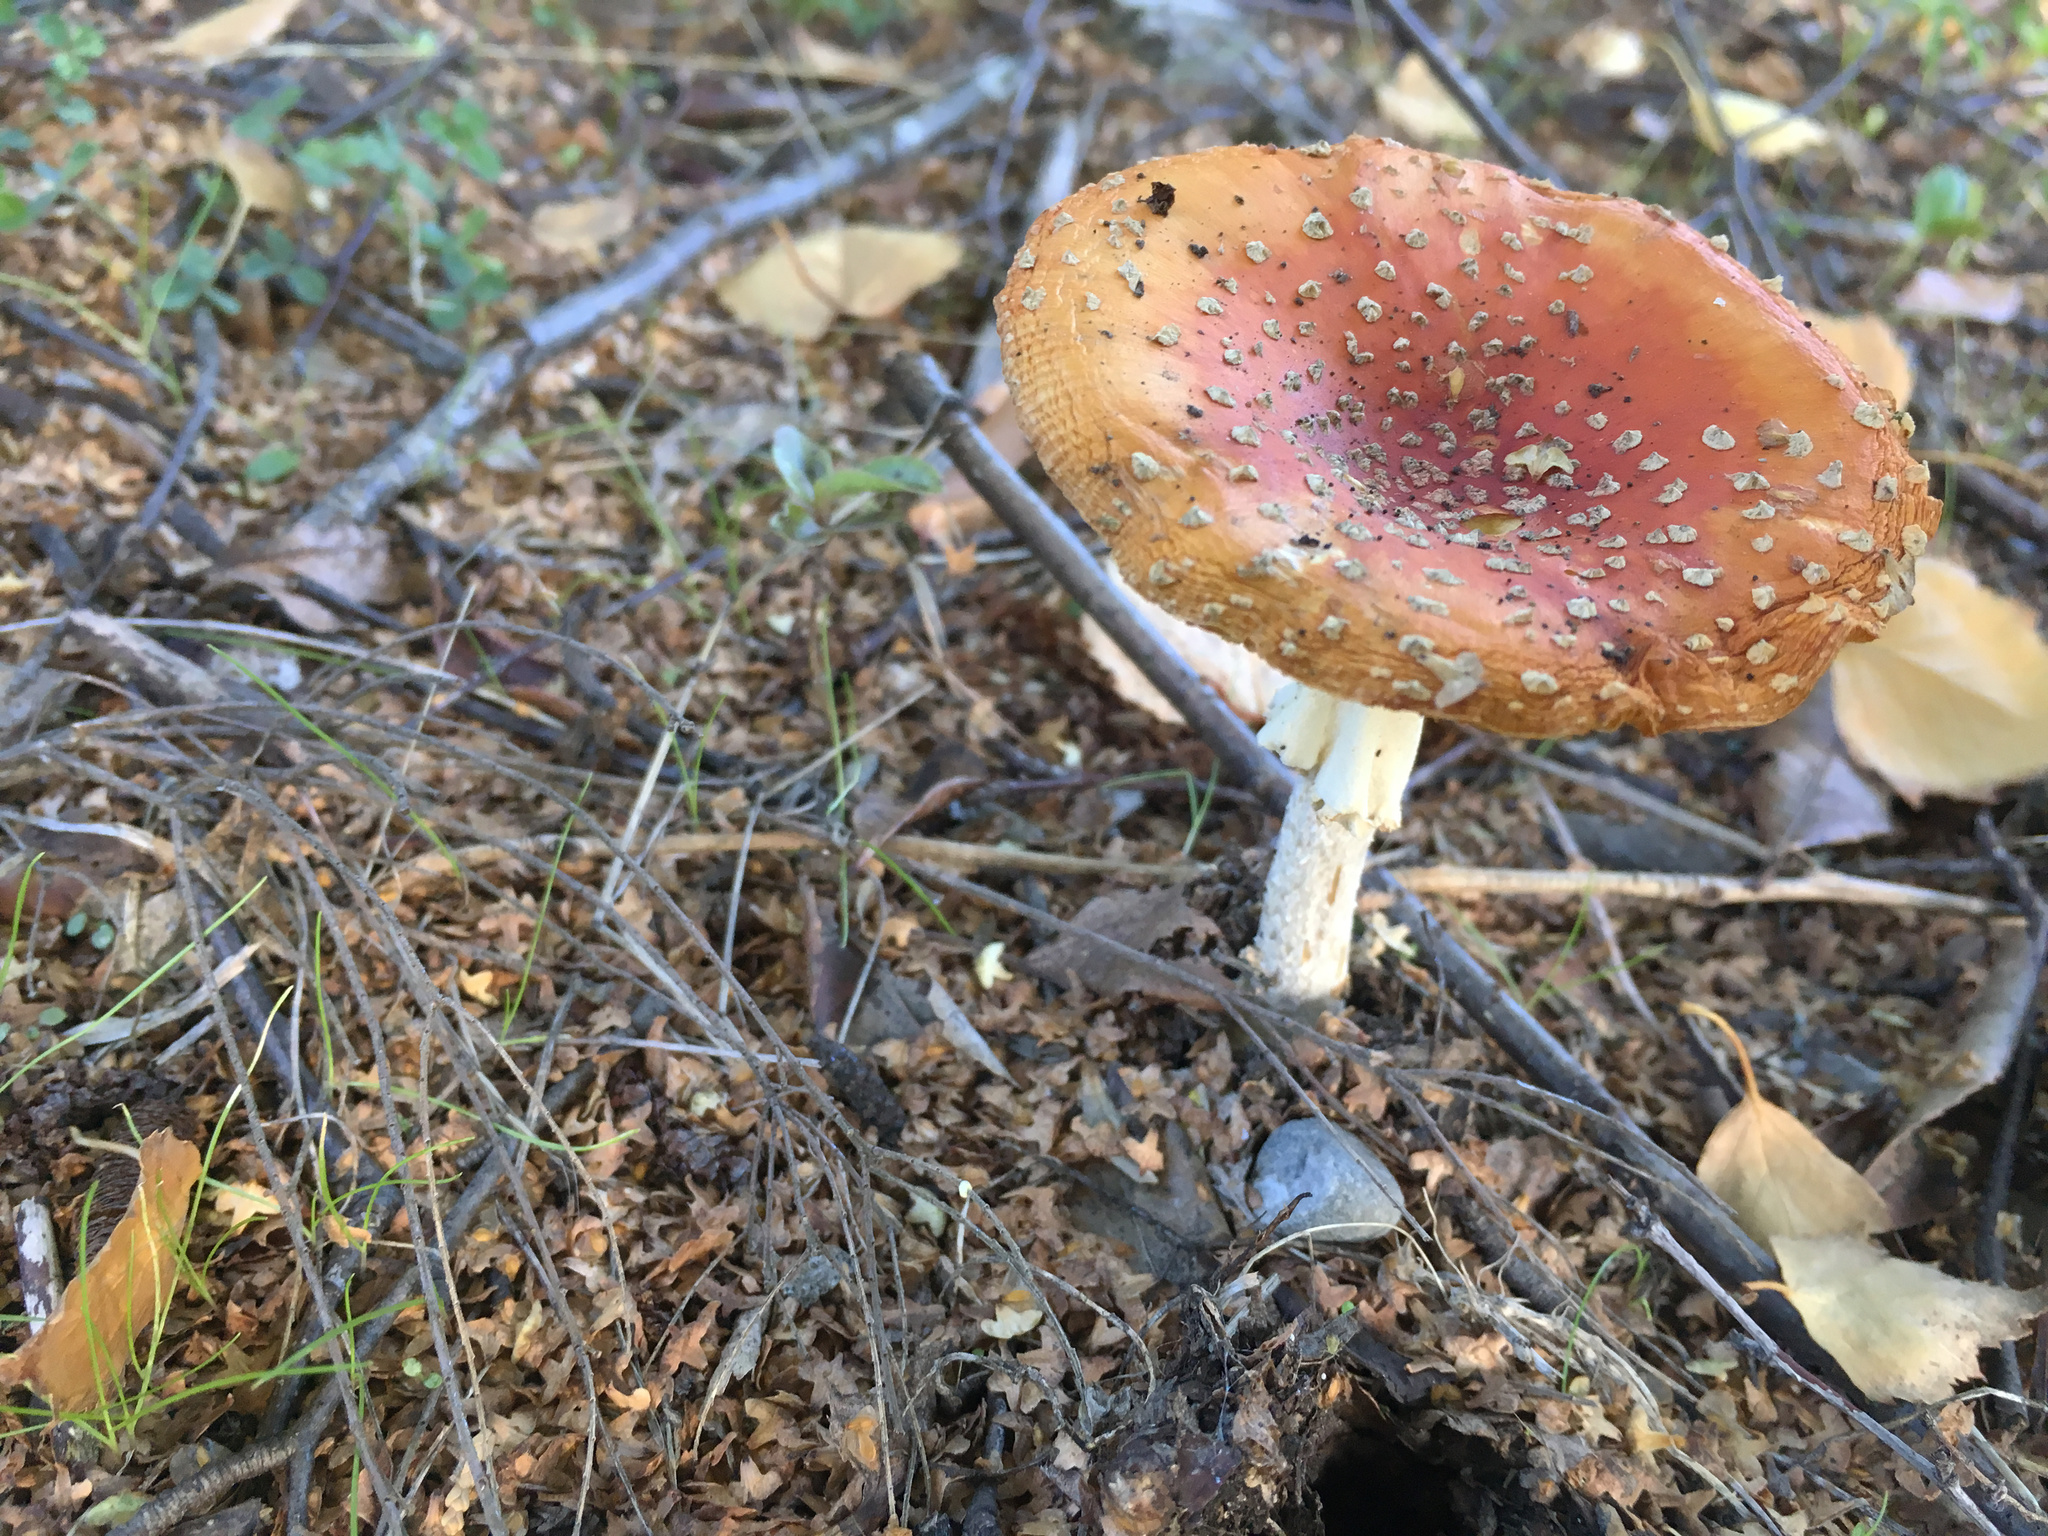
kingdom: Fungi
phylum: Basidiomycota
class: Agaricomycetes
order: Agaricales
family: Amanitaceae
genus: Amanita
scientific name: Amanita muscaria
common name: Fly agaric
